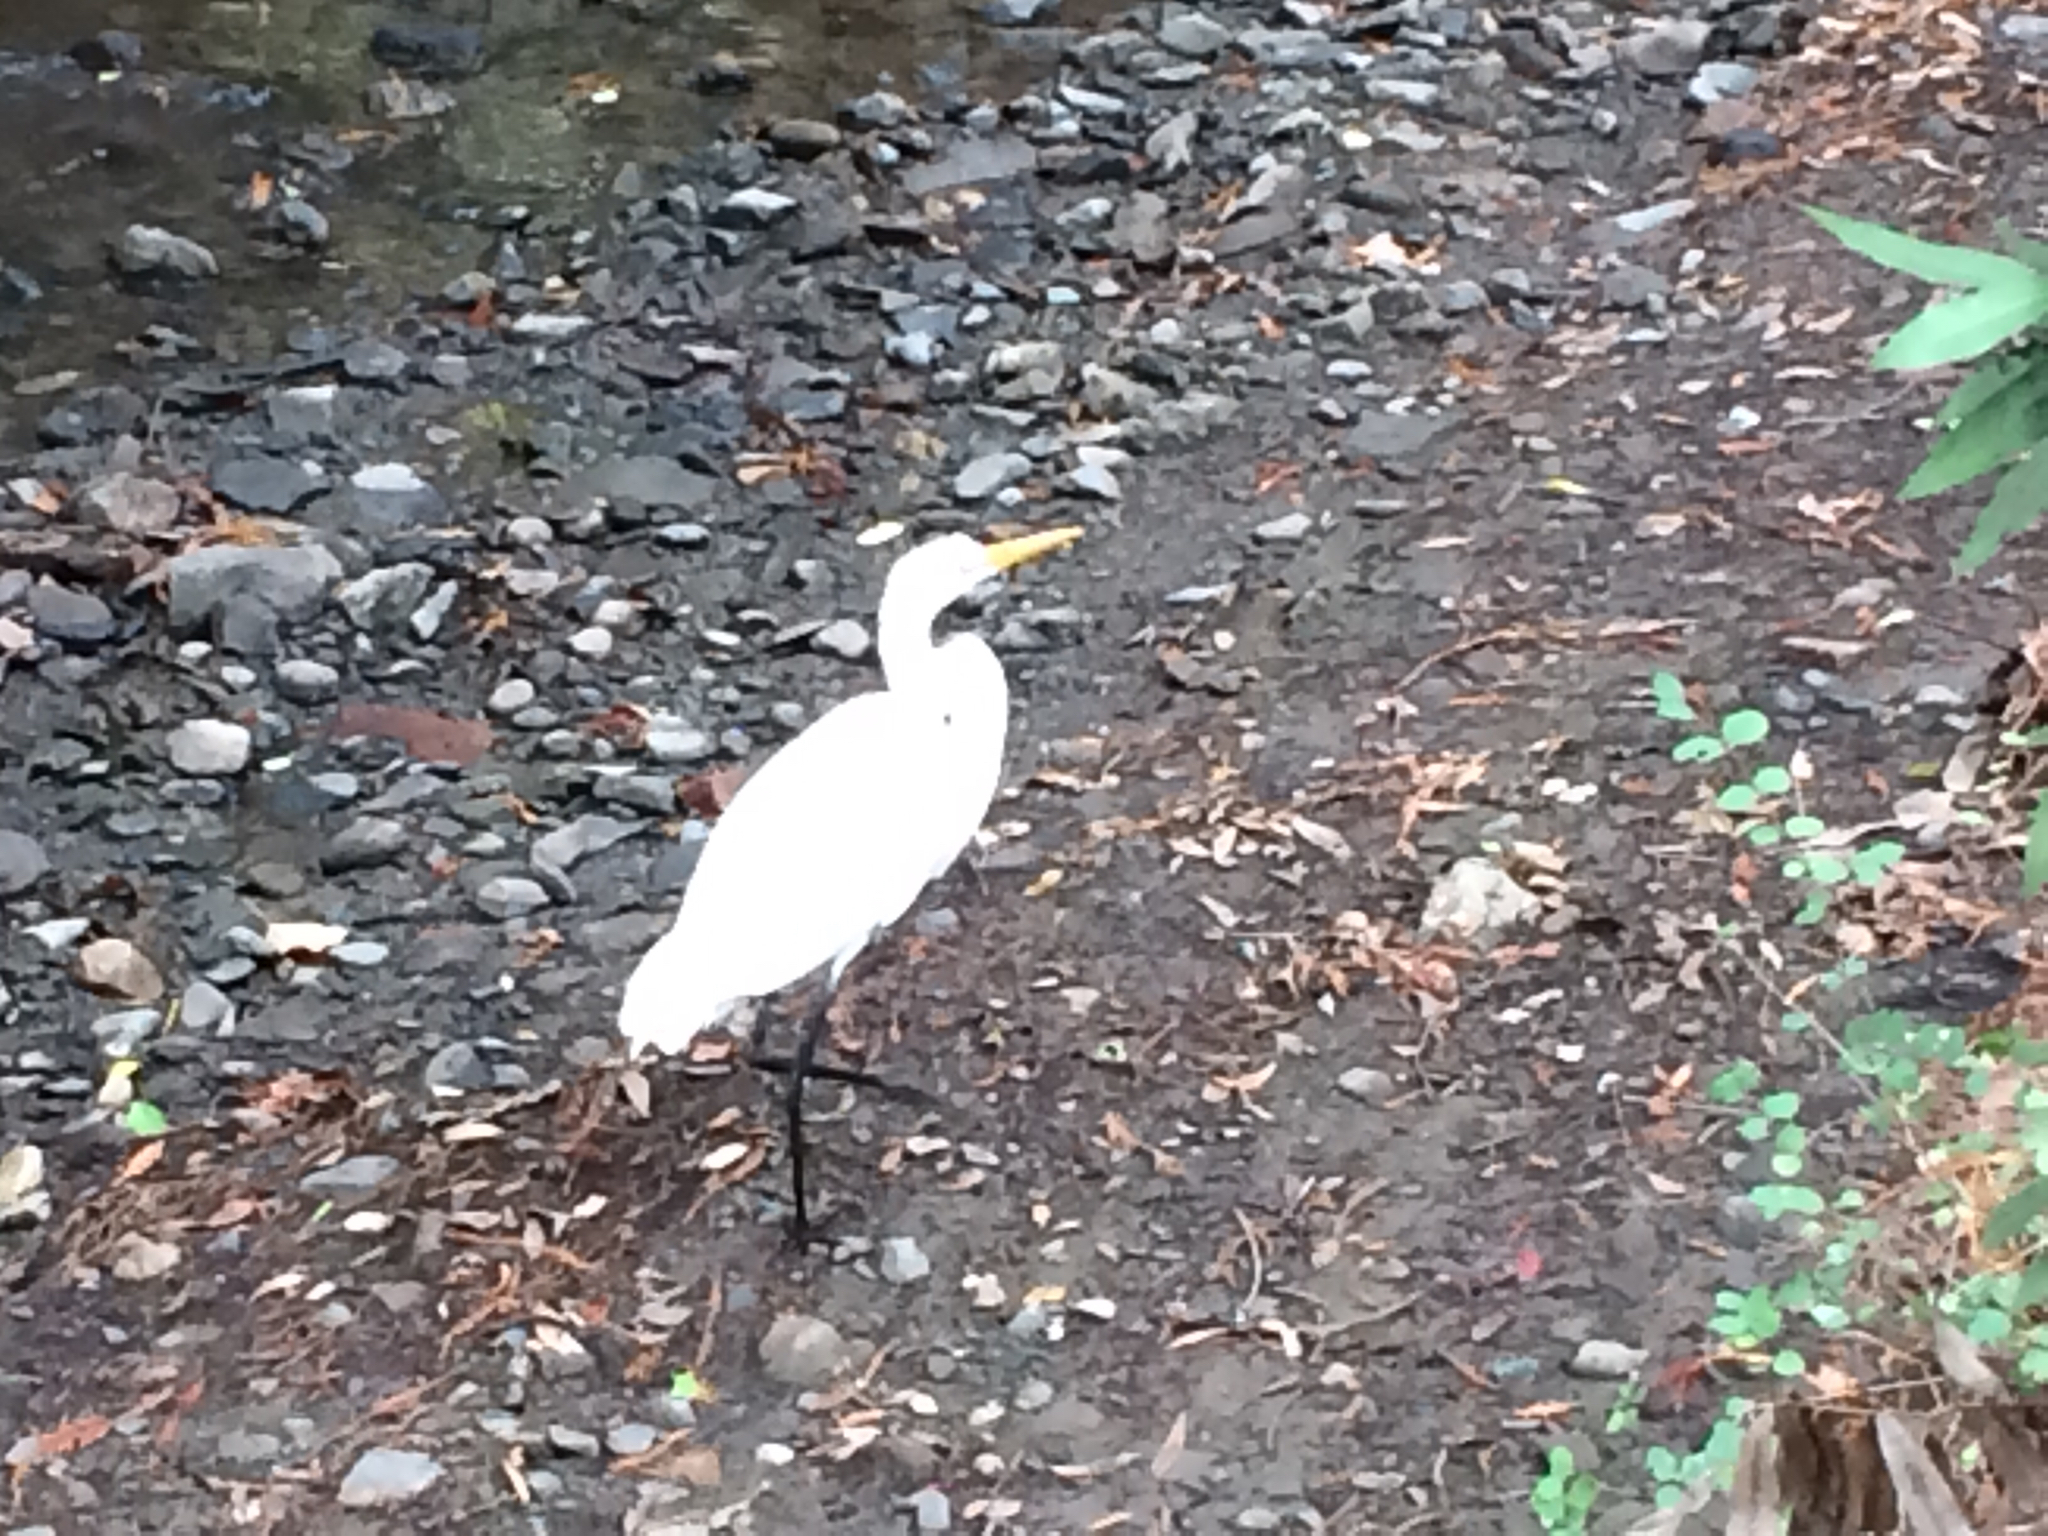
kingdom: Animalia
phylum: Chordata
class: Aves
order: Pelecaniformes
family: Ardeidae
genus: Ardea
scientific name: Ardea alba
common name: Great egret
